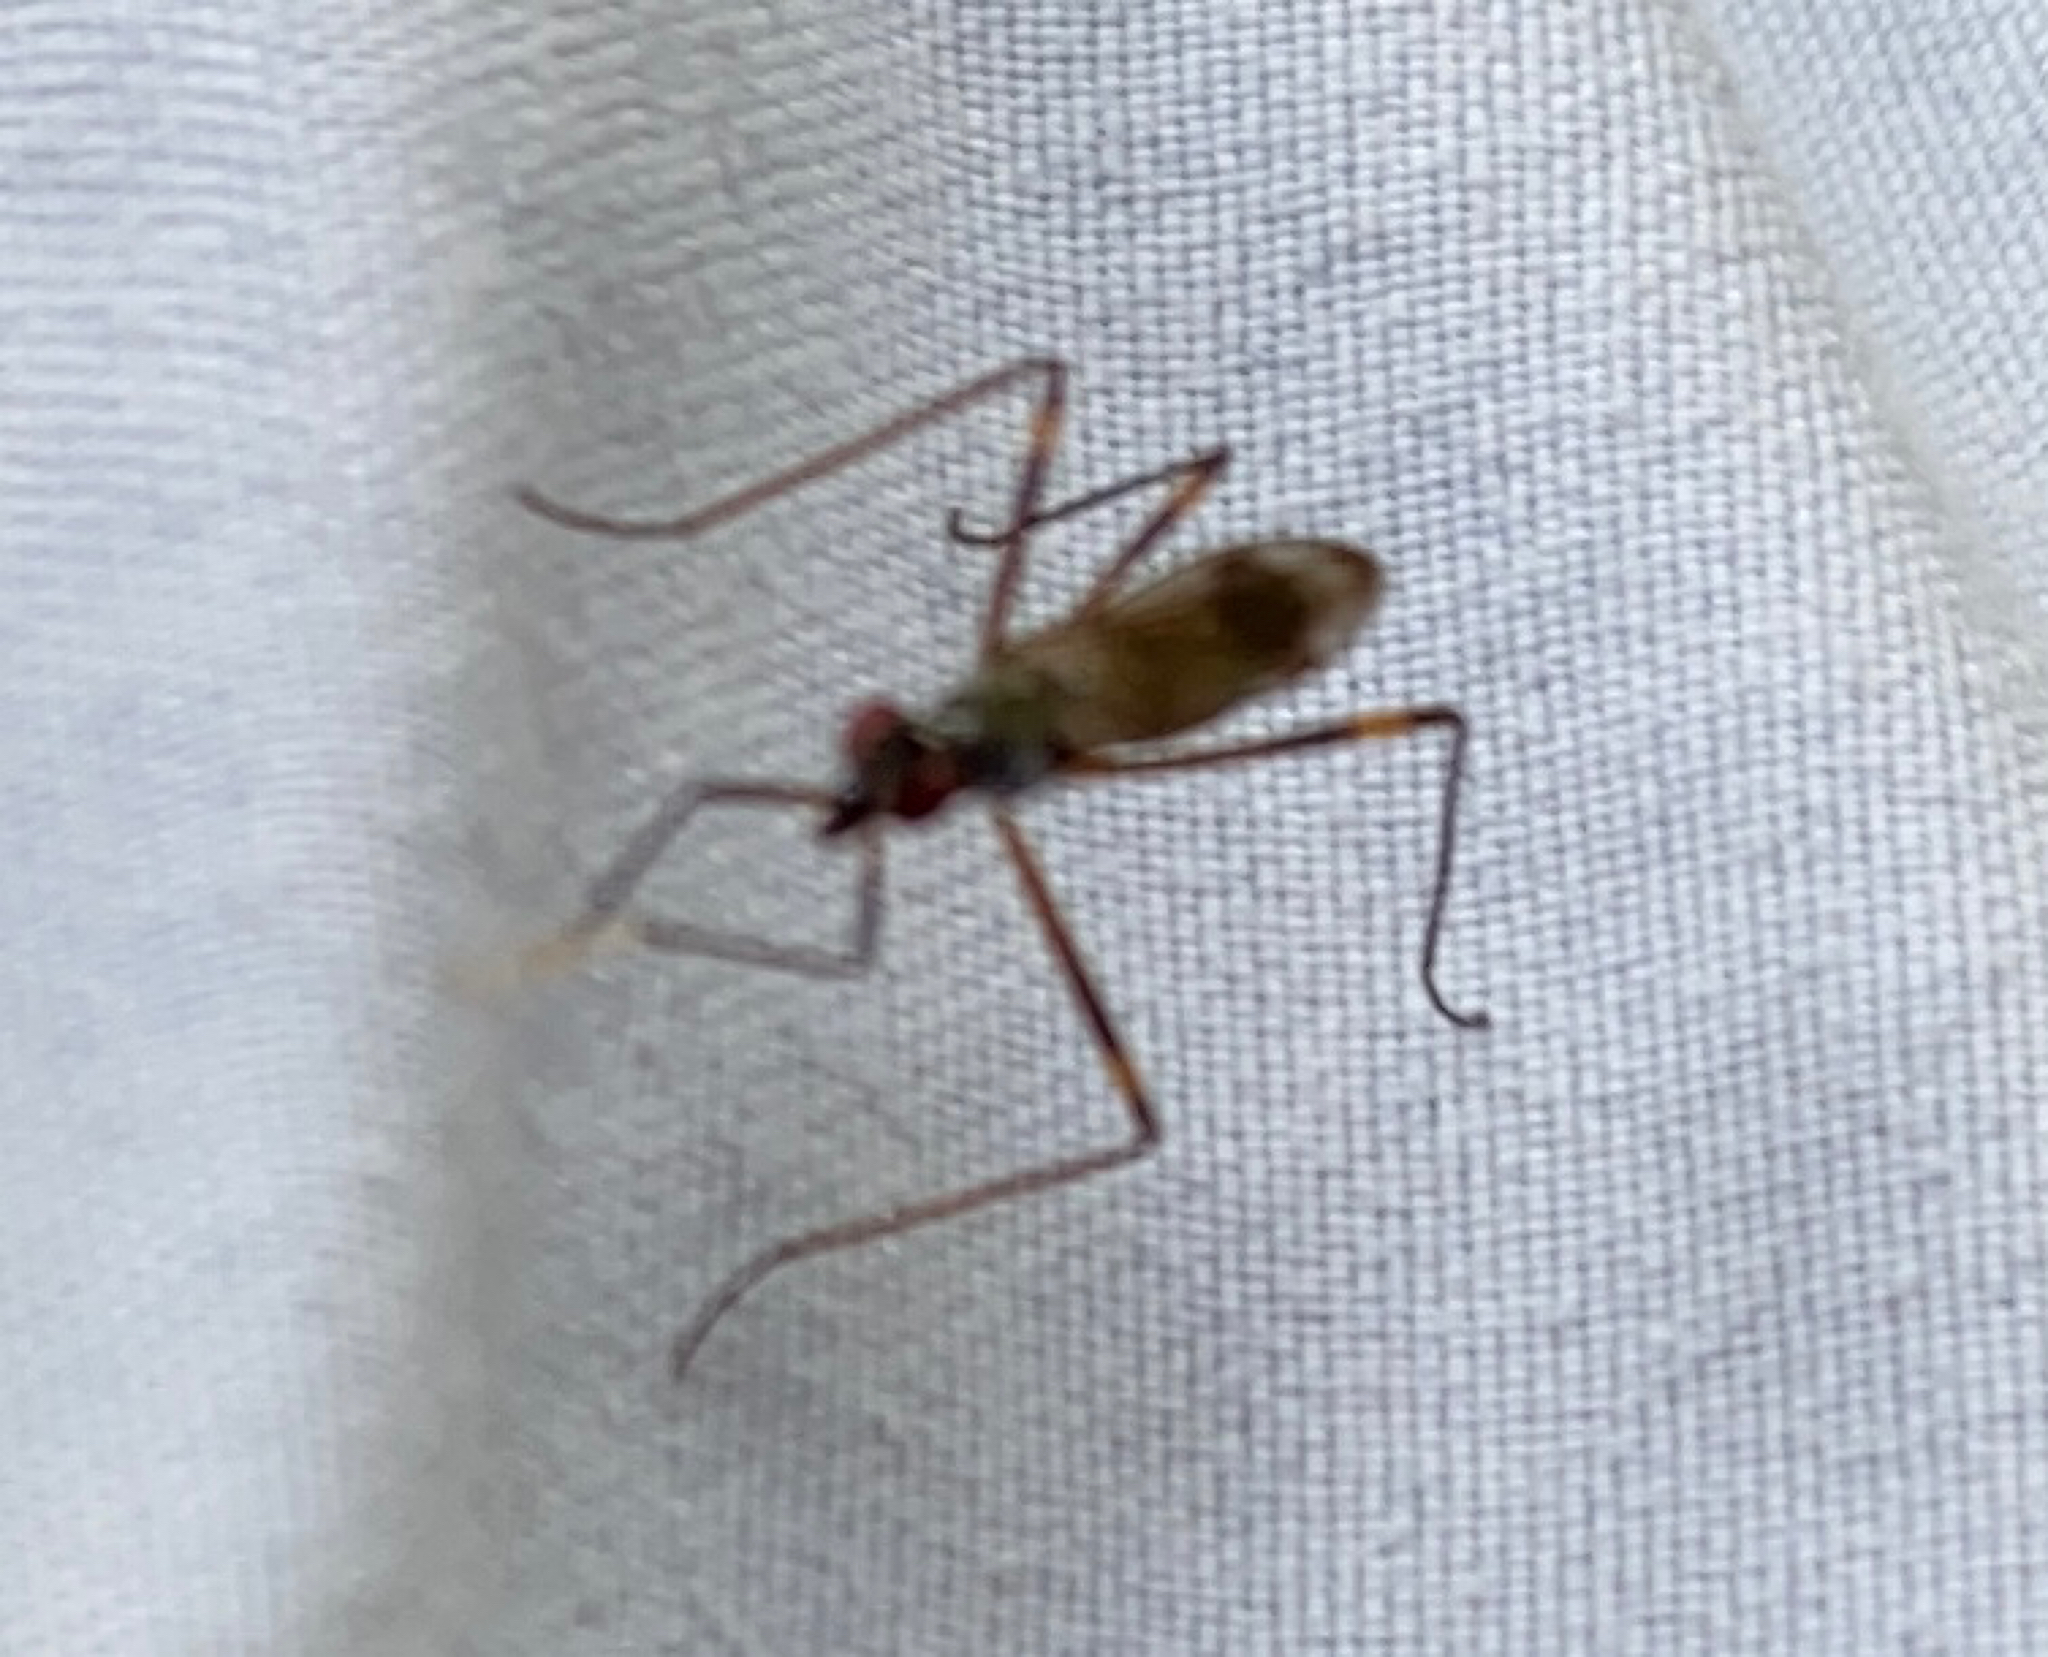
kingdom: Animalia
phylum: Arthropoda
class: Insecta
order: Diptera
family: Micropezidae
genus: Rainieria
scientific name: Rainieria antennaepes
